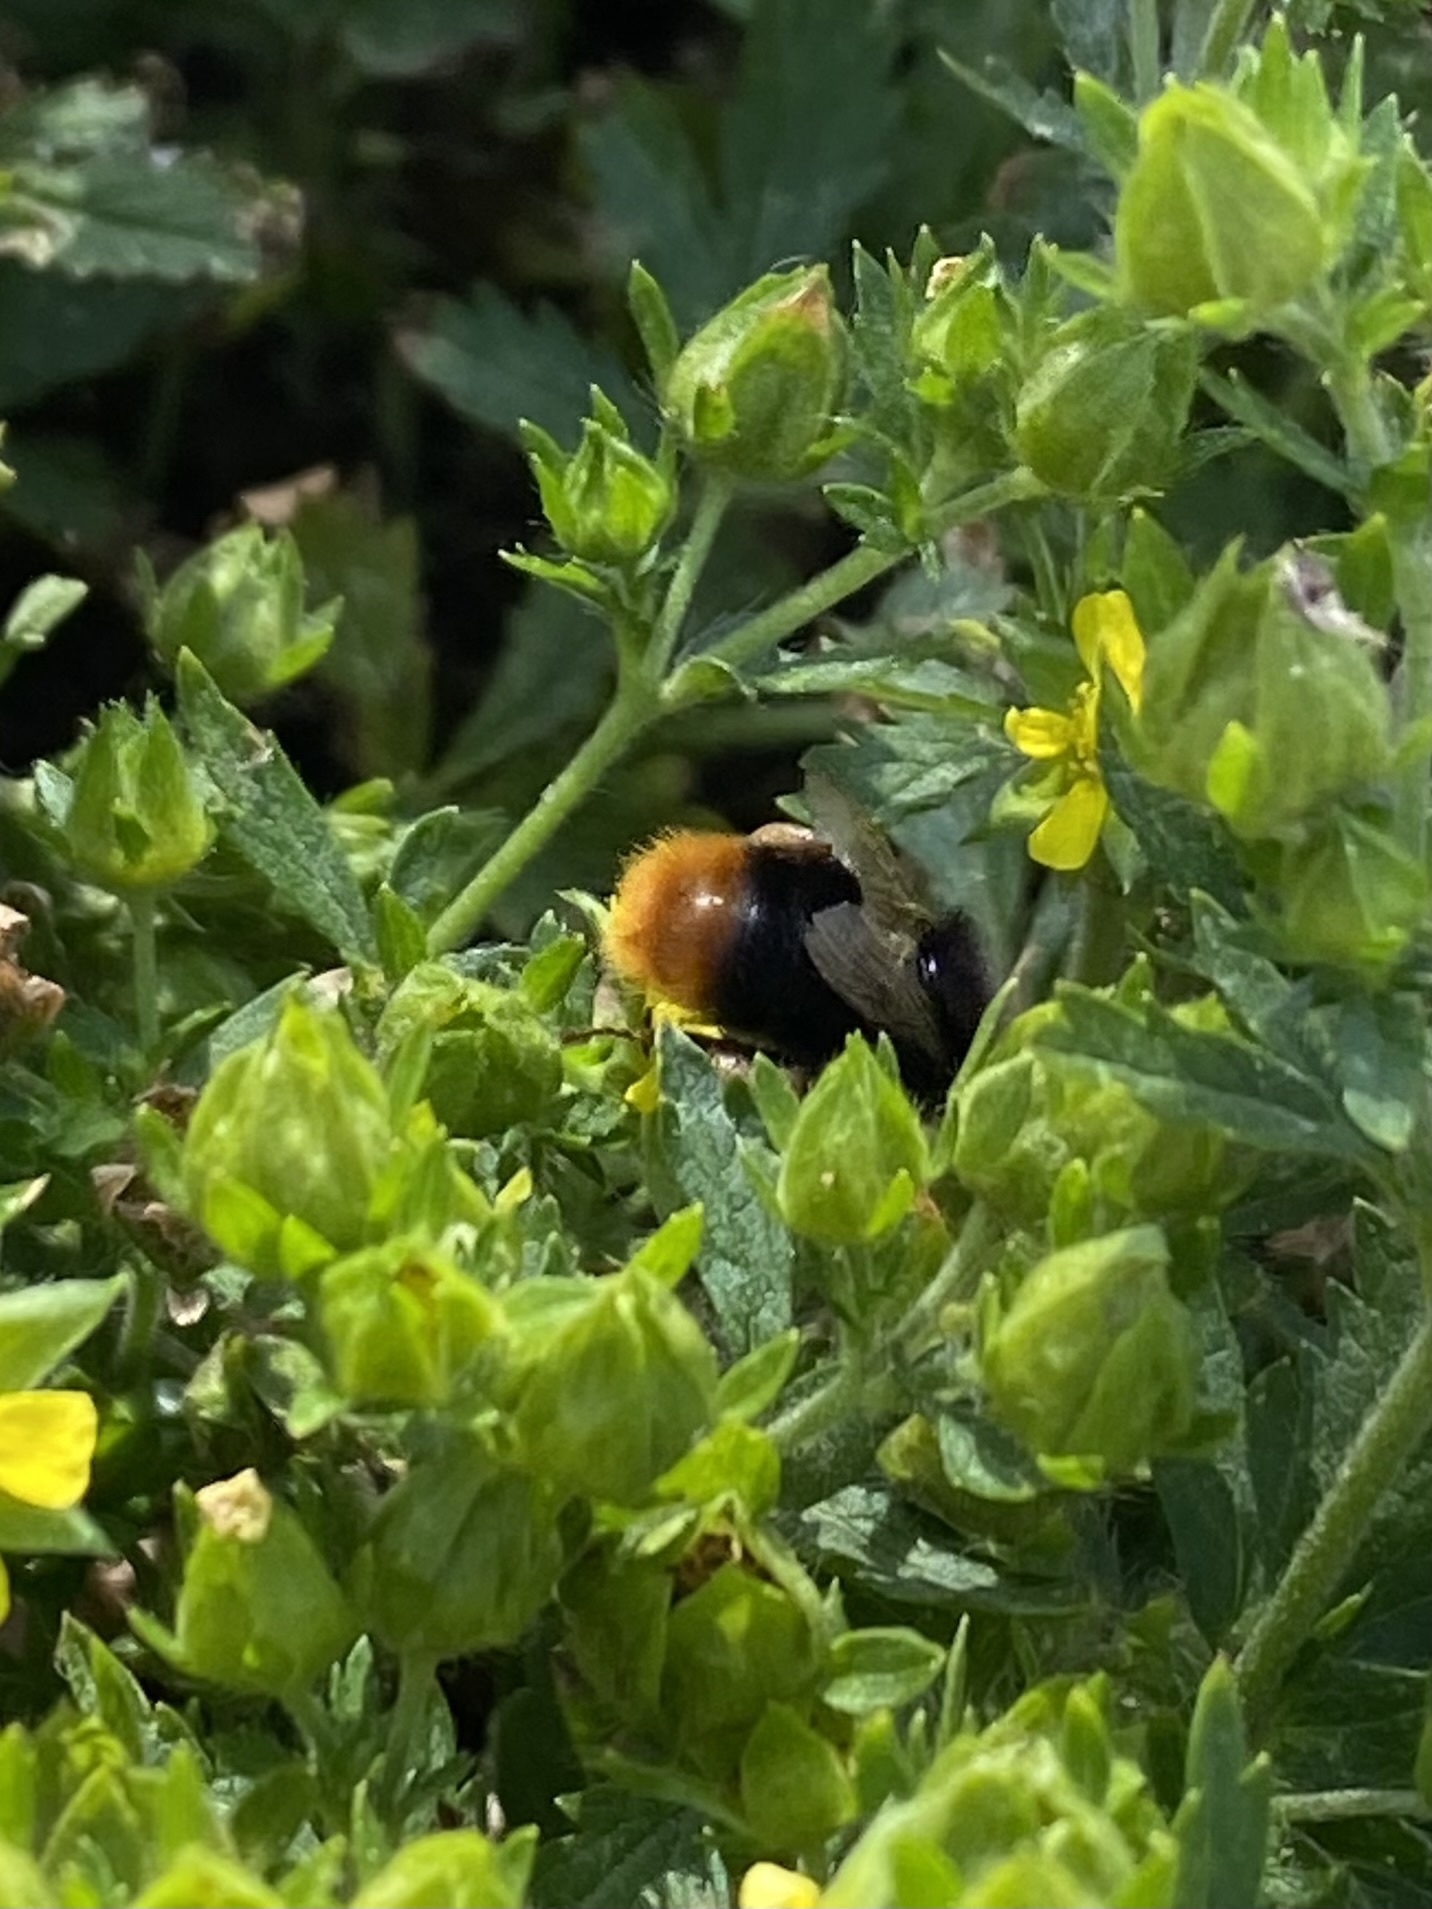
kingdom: Animalia
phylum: Arthropoda
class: Insecta
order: Hymenoptera
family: Apidae
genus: Bombus
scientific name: Bombus lapidarius
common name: Large red-tailed humble-bee
